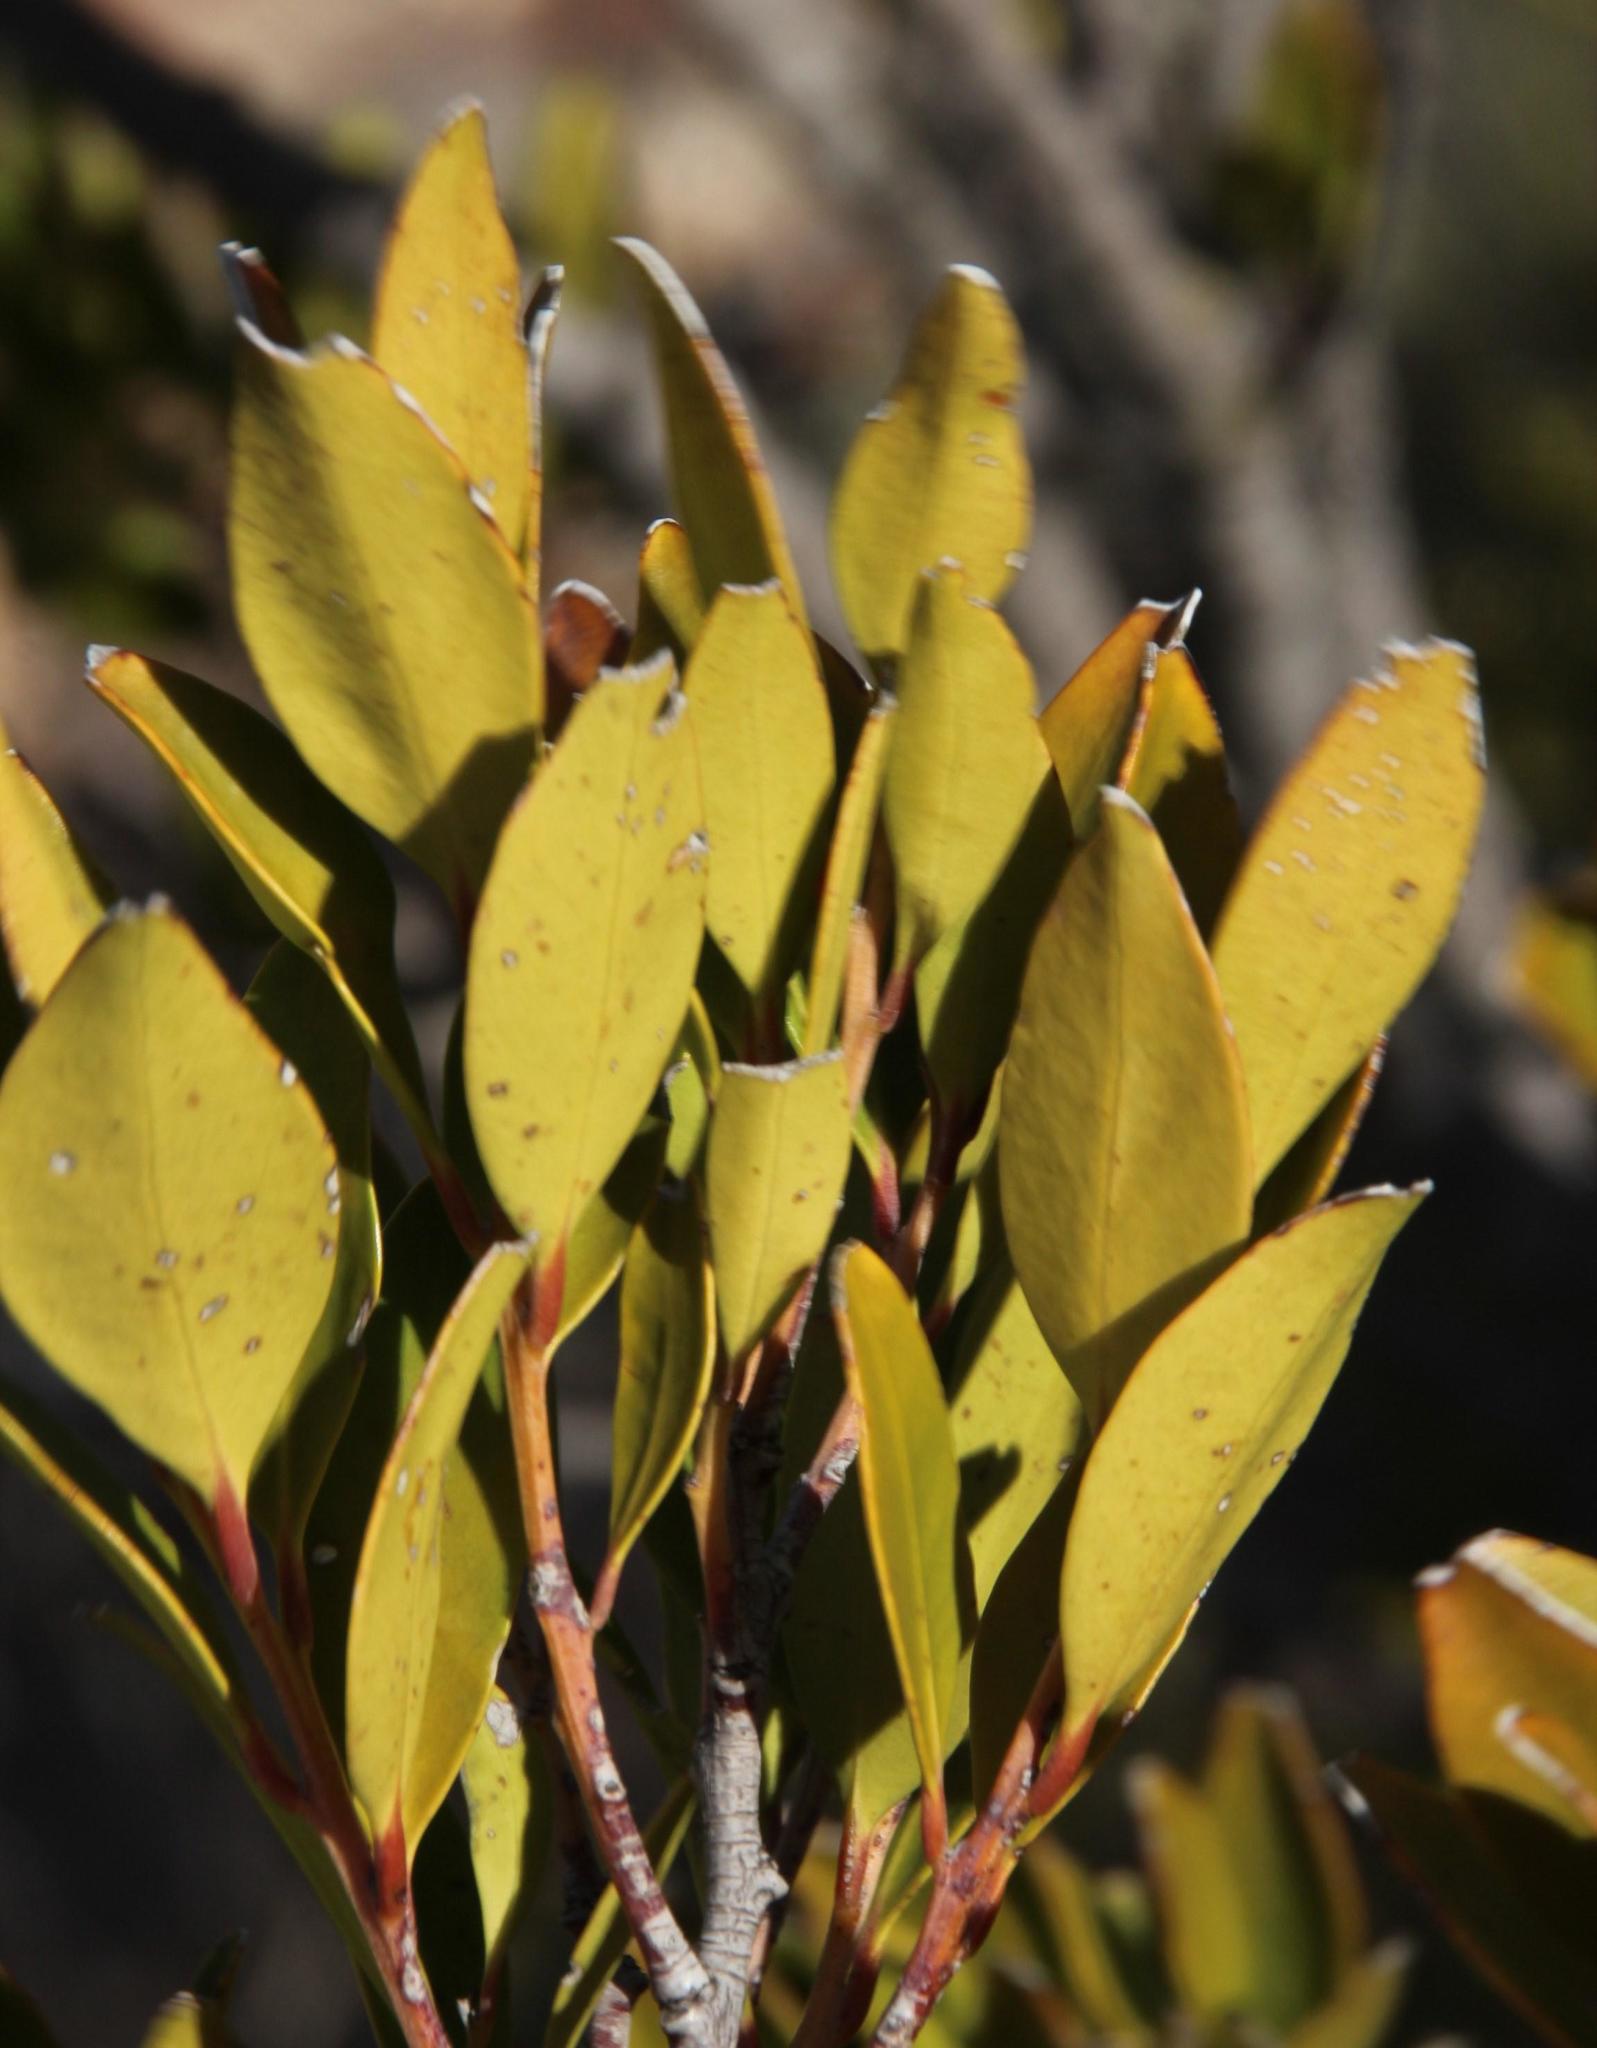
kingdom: Plantae
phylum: Tracheophyta
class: Magnoliopsida
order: Celastrales
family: Celastraceae
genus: Pterocelastrus
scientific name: Pterocelastrus tricuspidatus
